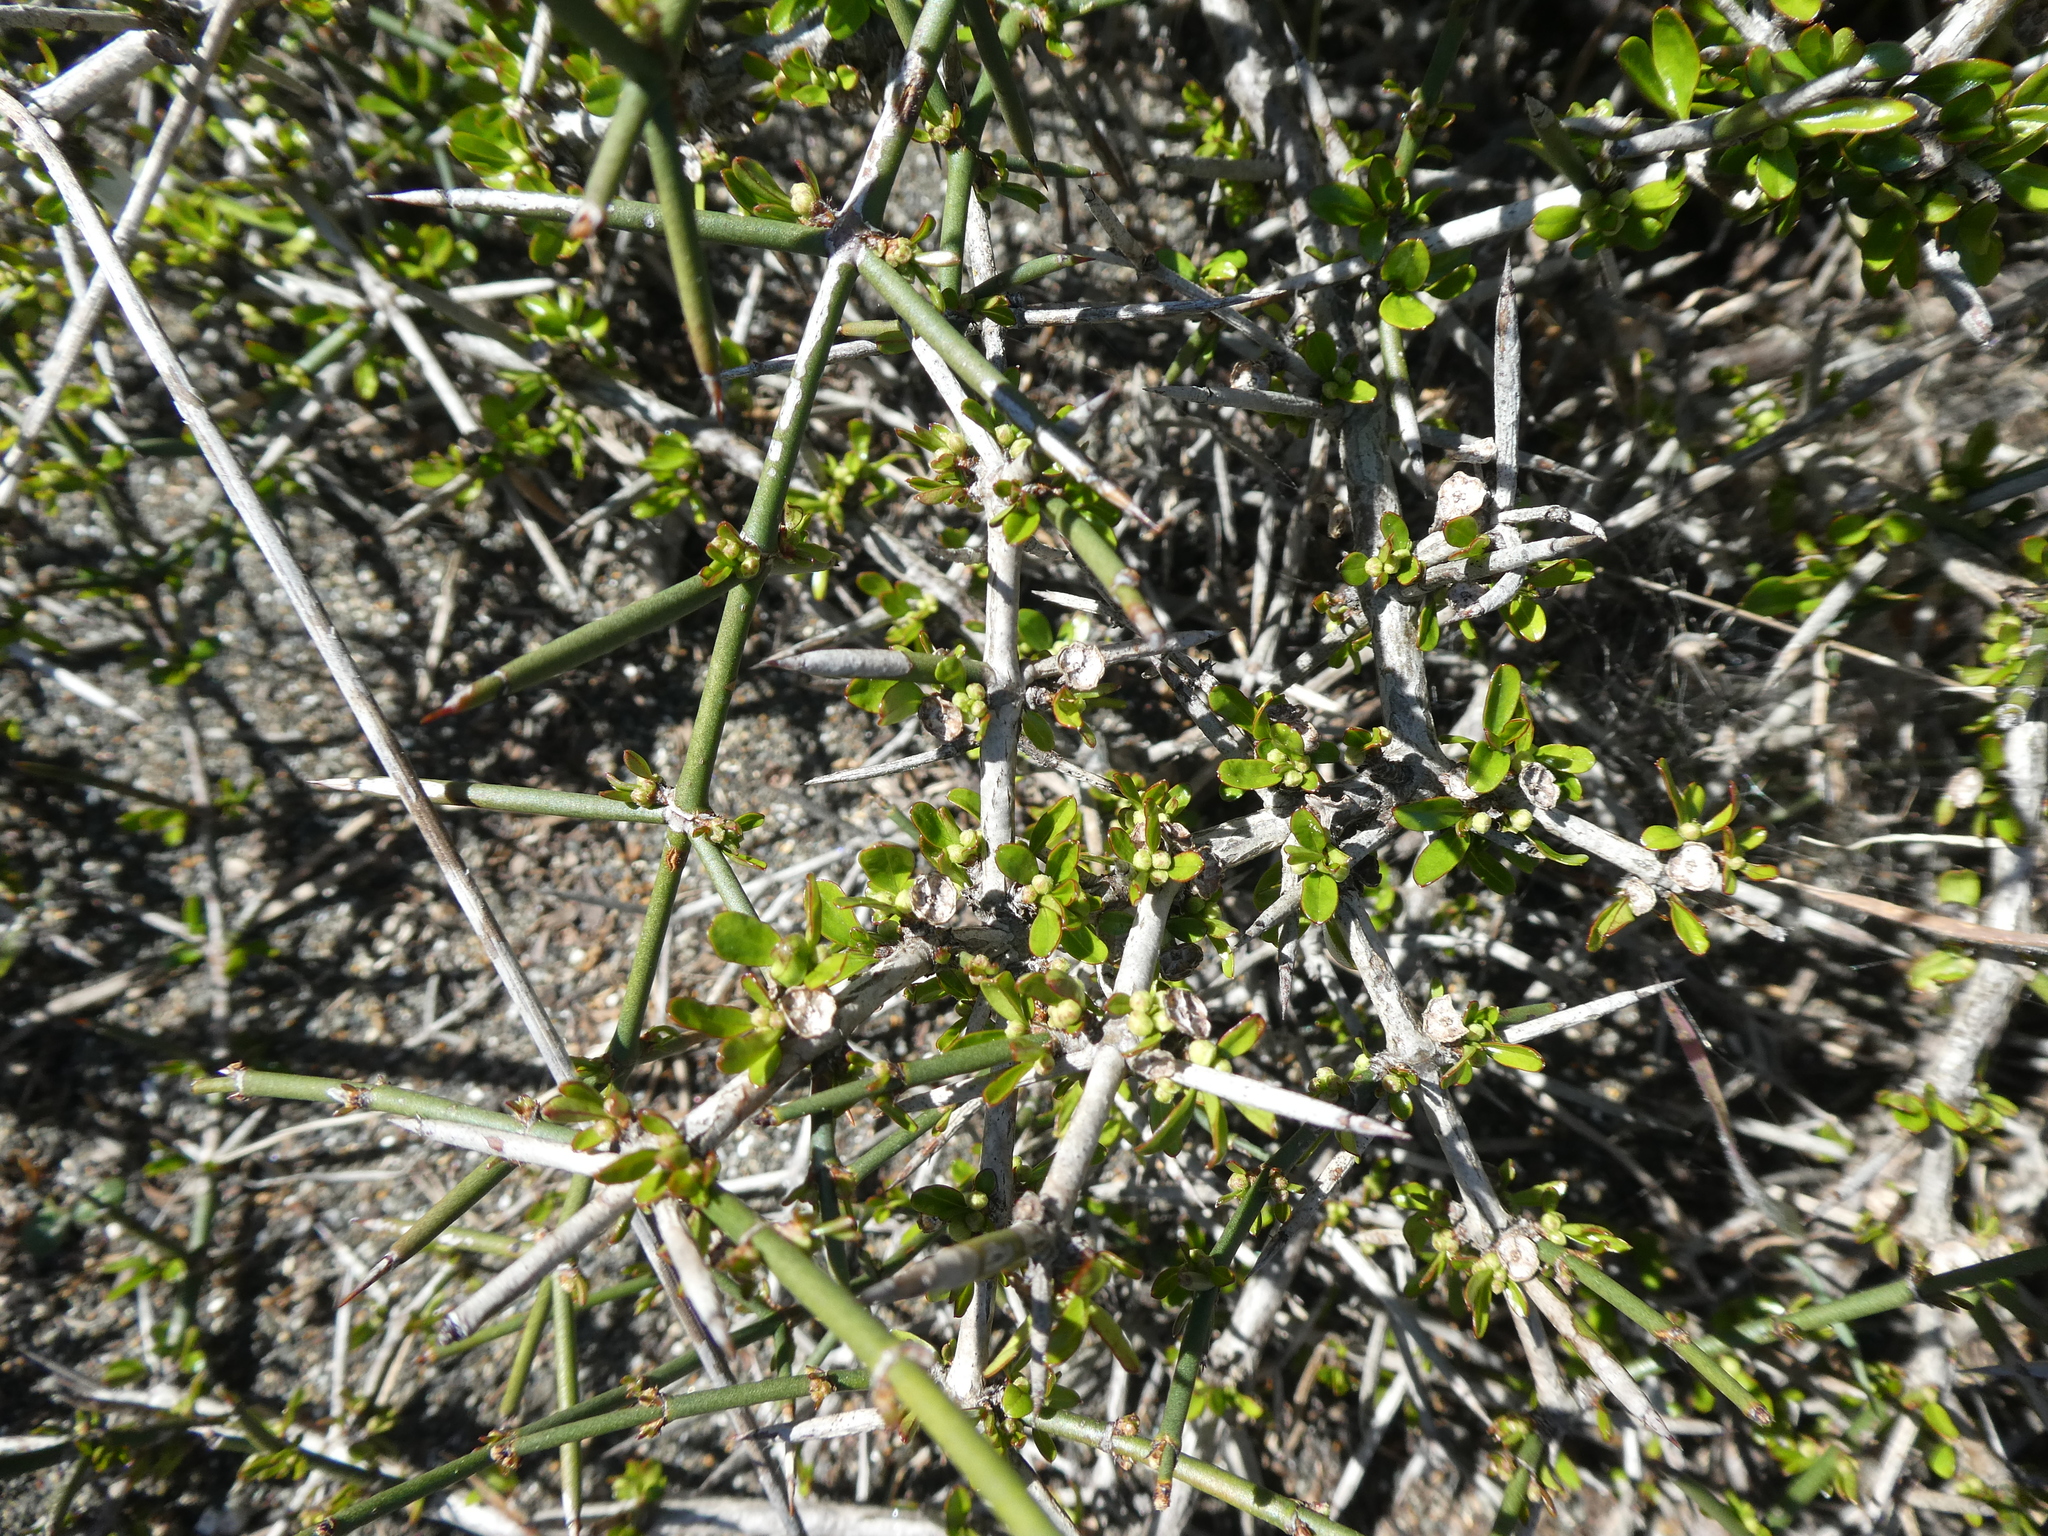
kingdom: Plantae
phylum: Tracheophyta
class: Magnoliopsida
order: Rosales
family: Rhamnaceae
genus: Discaria
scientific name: Discaria toumatou
